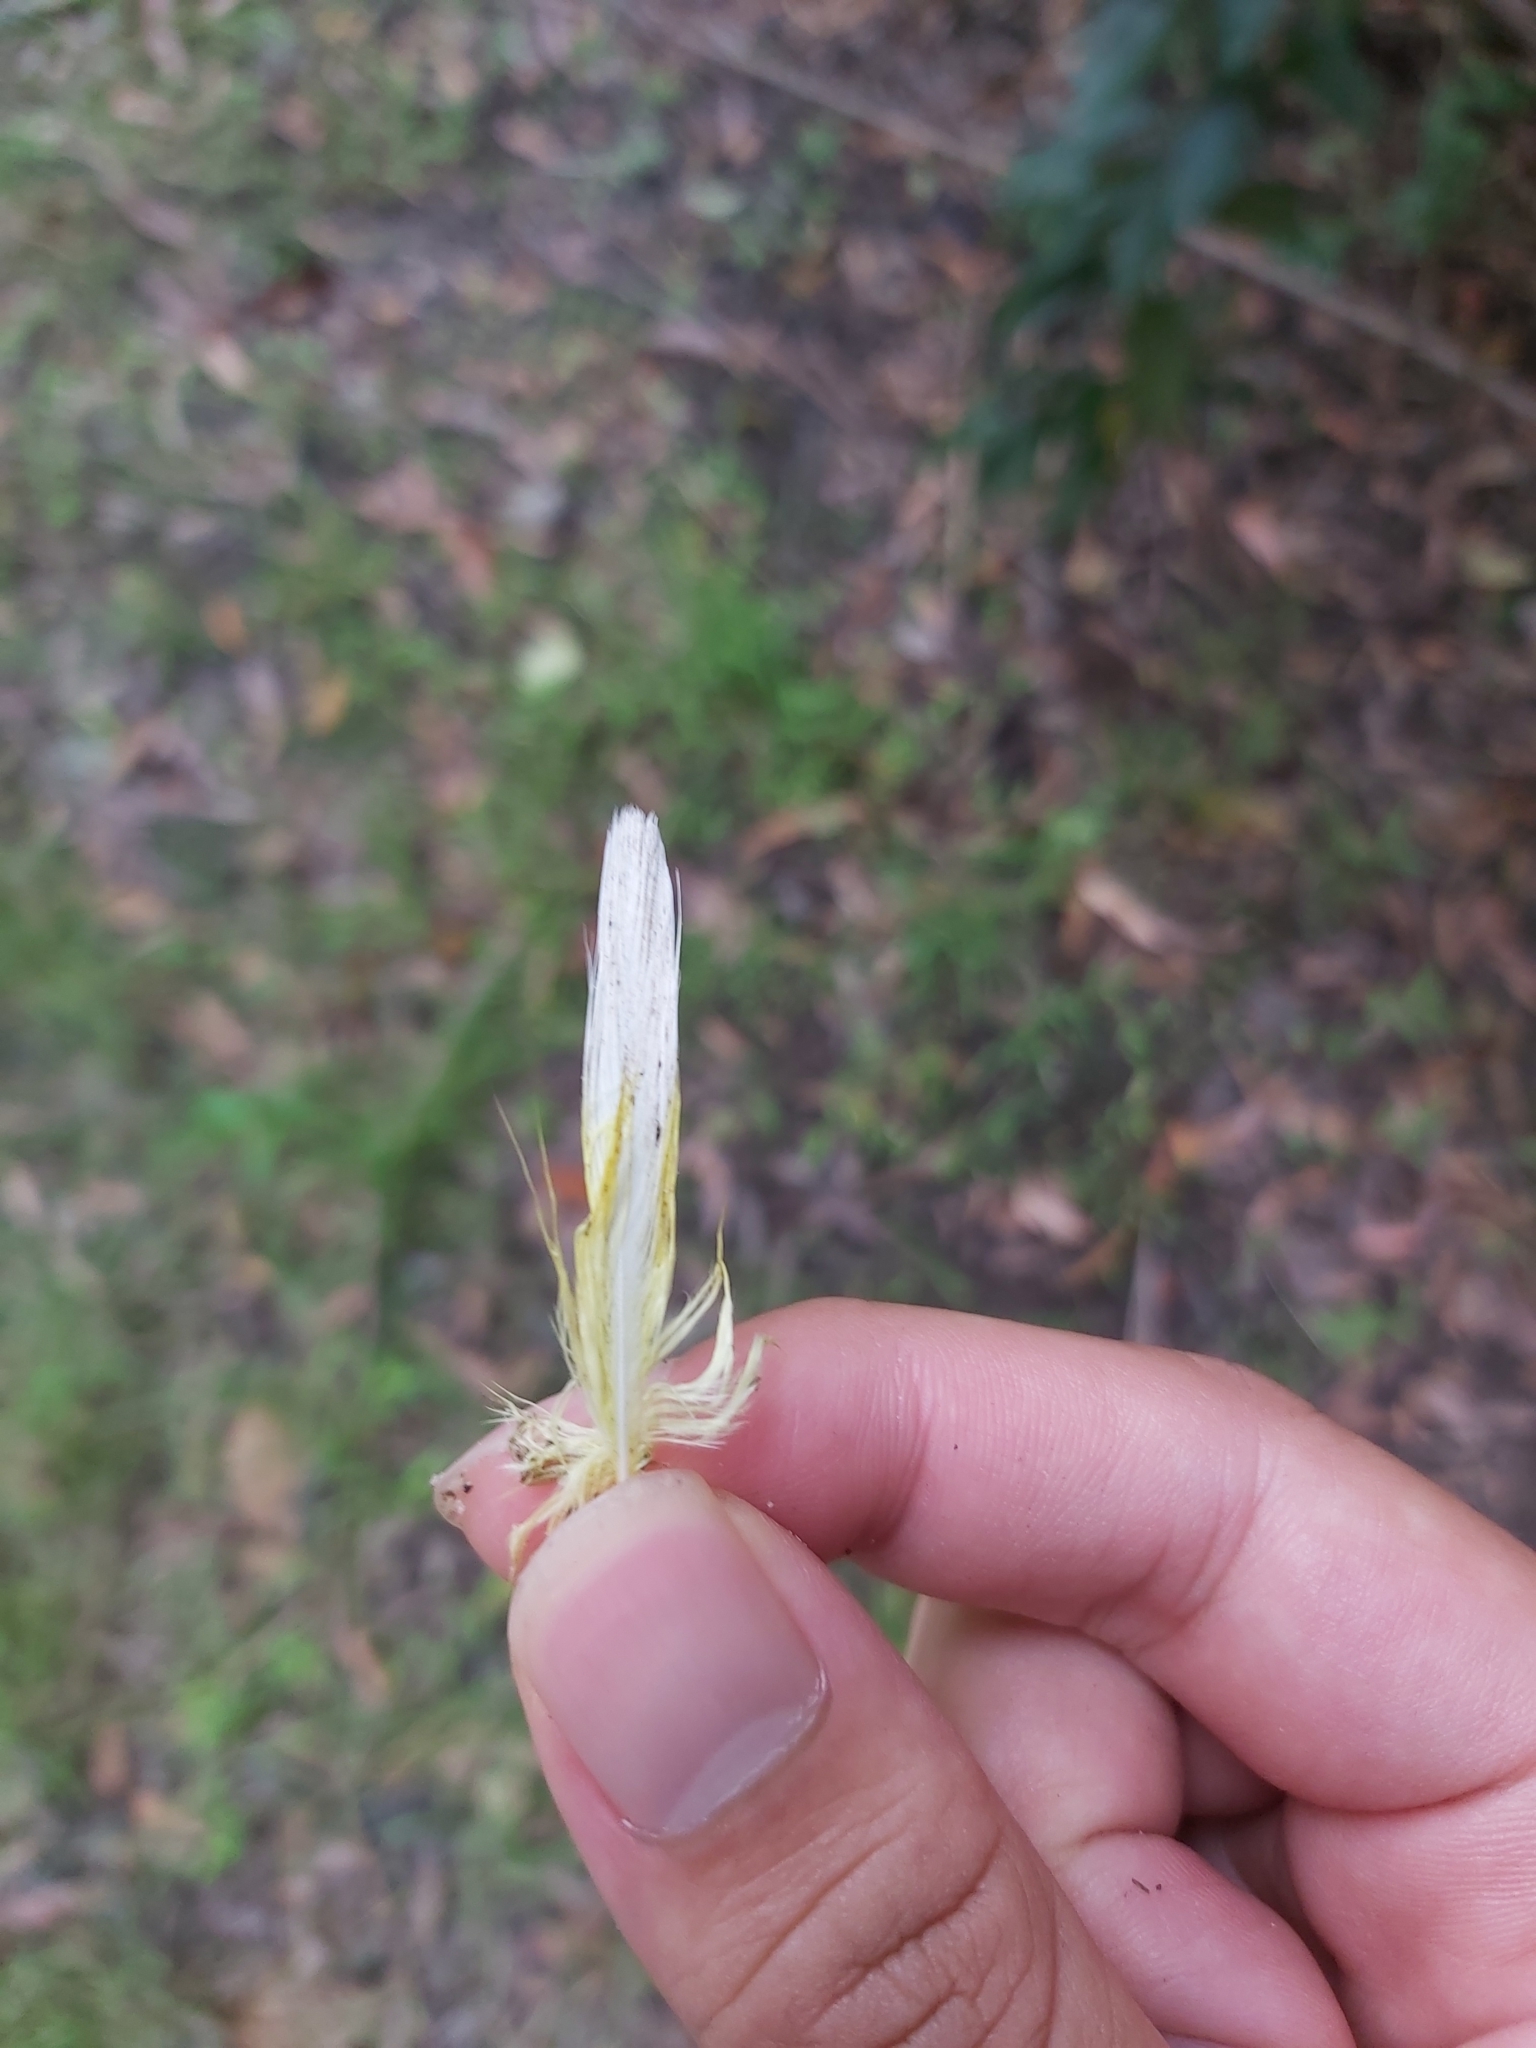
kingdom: Animalia
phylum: Chordata
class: Aves
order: Psittaciformes
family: Psittacidae
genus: Cacatua
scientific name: Cacatua galerita
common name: Sulphur-crested cockatoo
